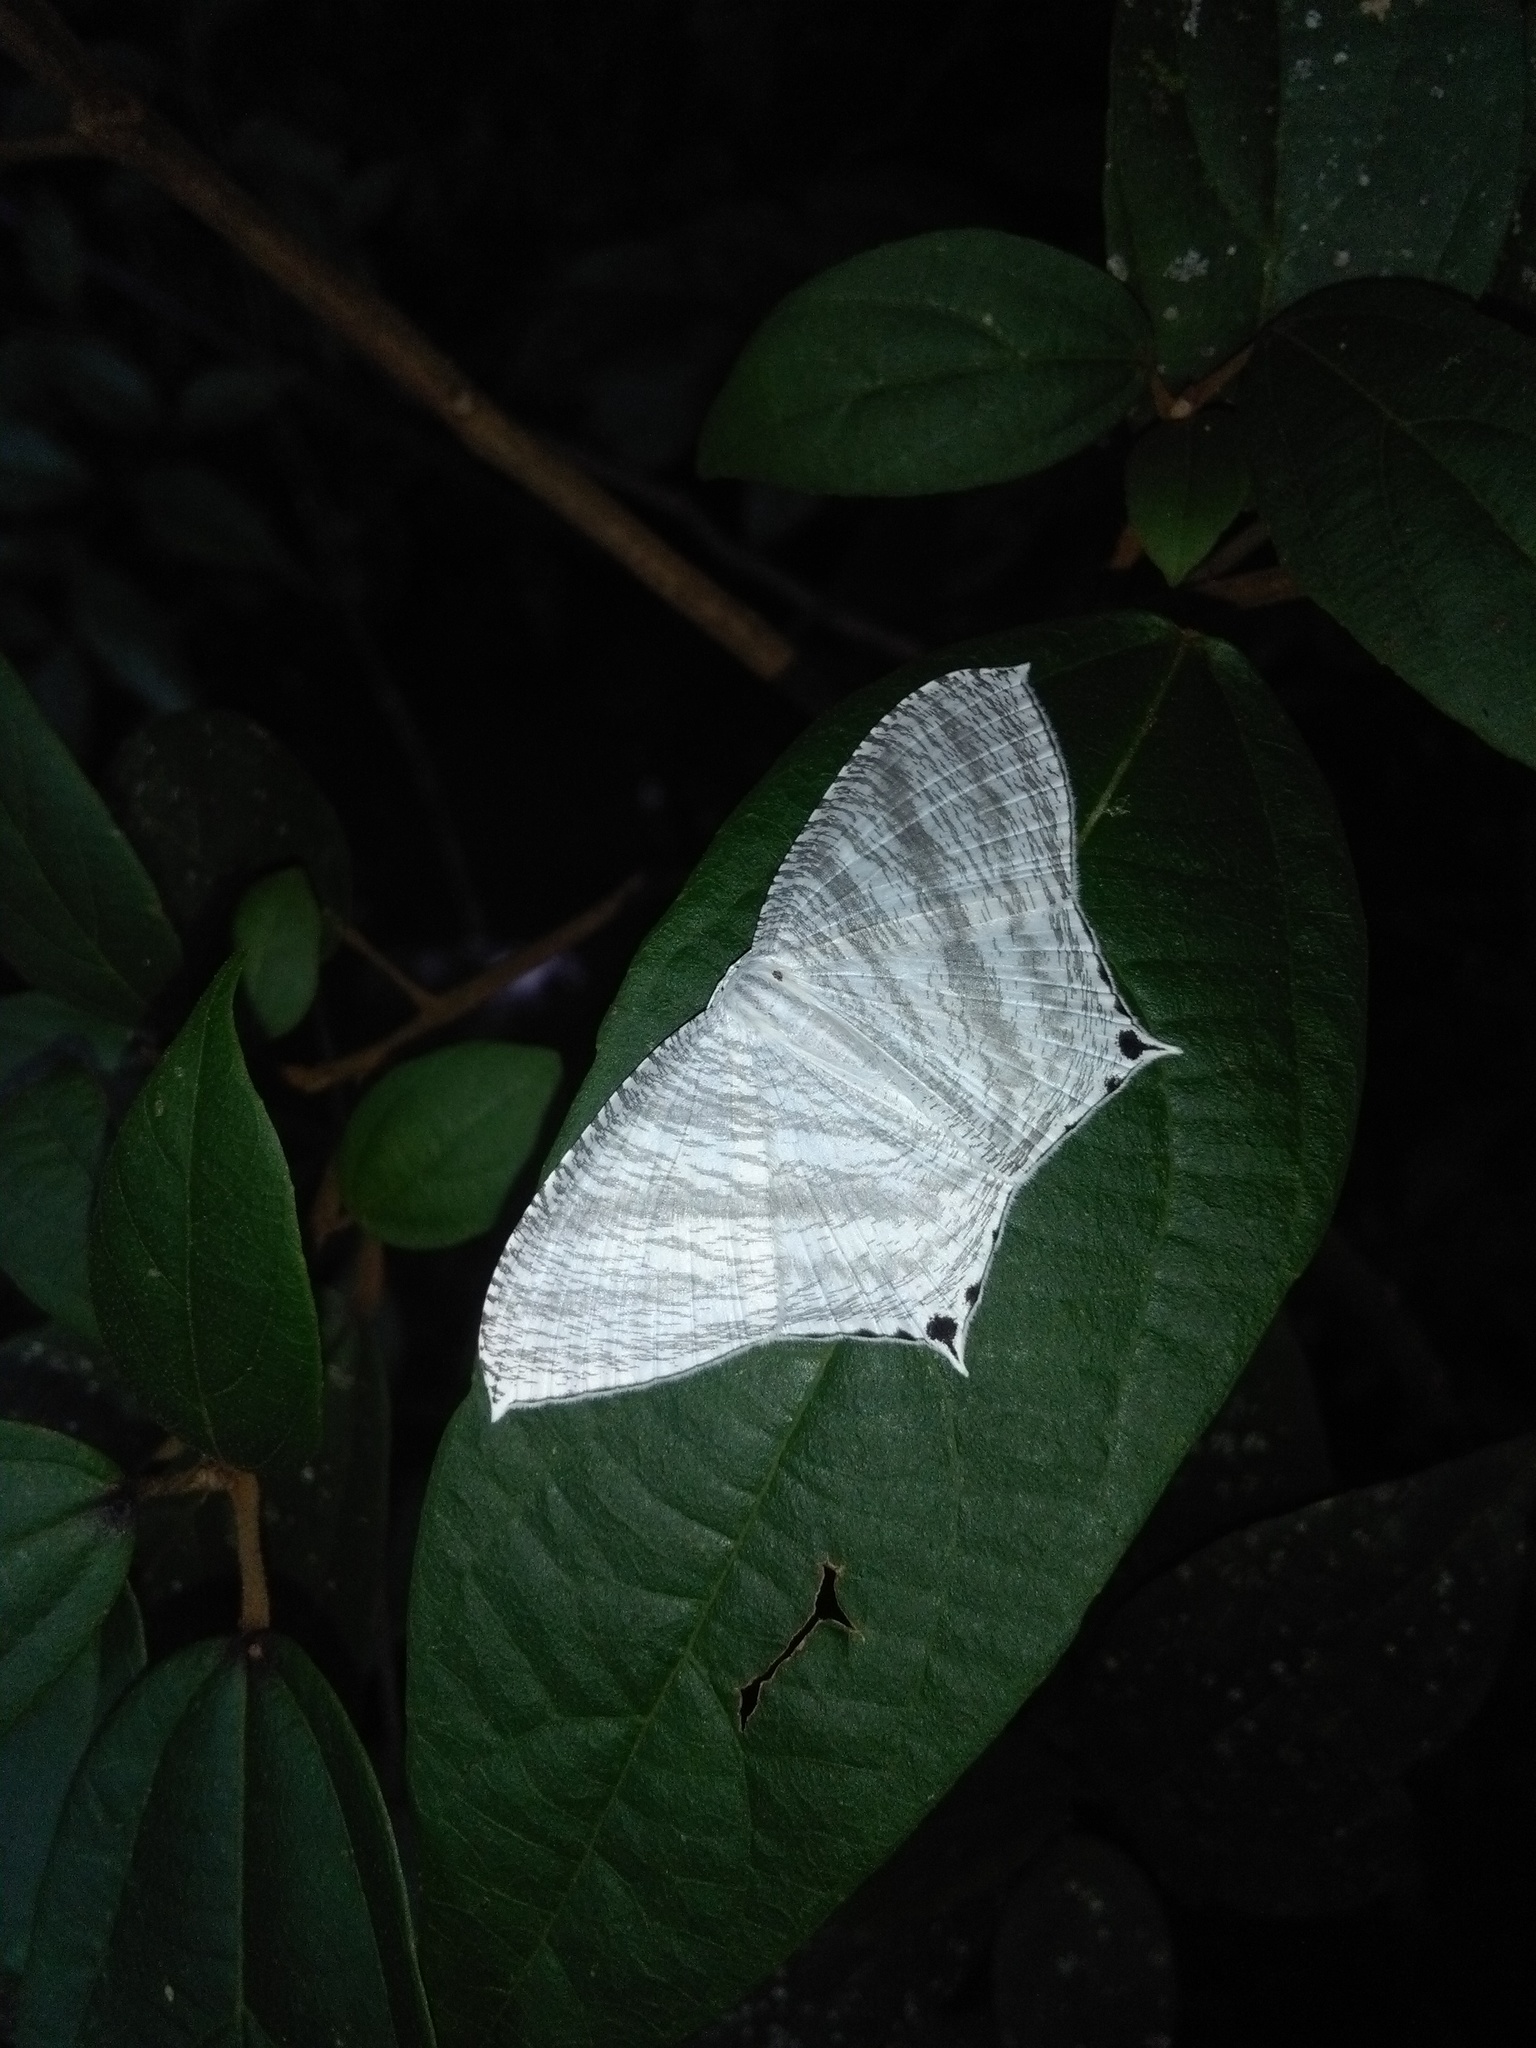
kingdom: Animalia
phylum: Arthropoda
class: Insecta
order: Lepidoptera
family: Uraniidae
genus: Micronia
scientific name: Micronia aculeata
